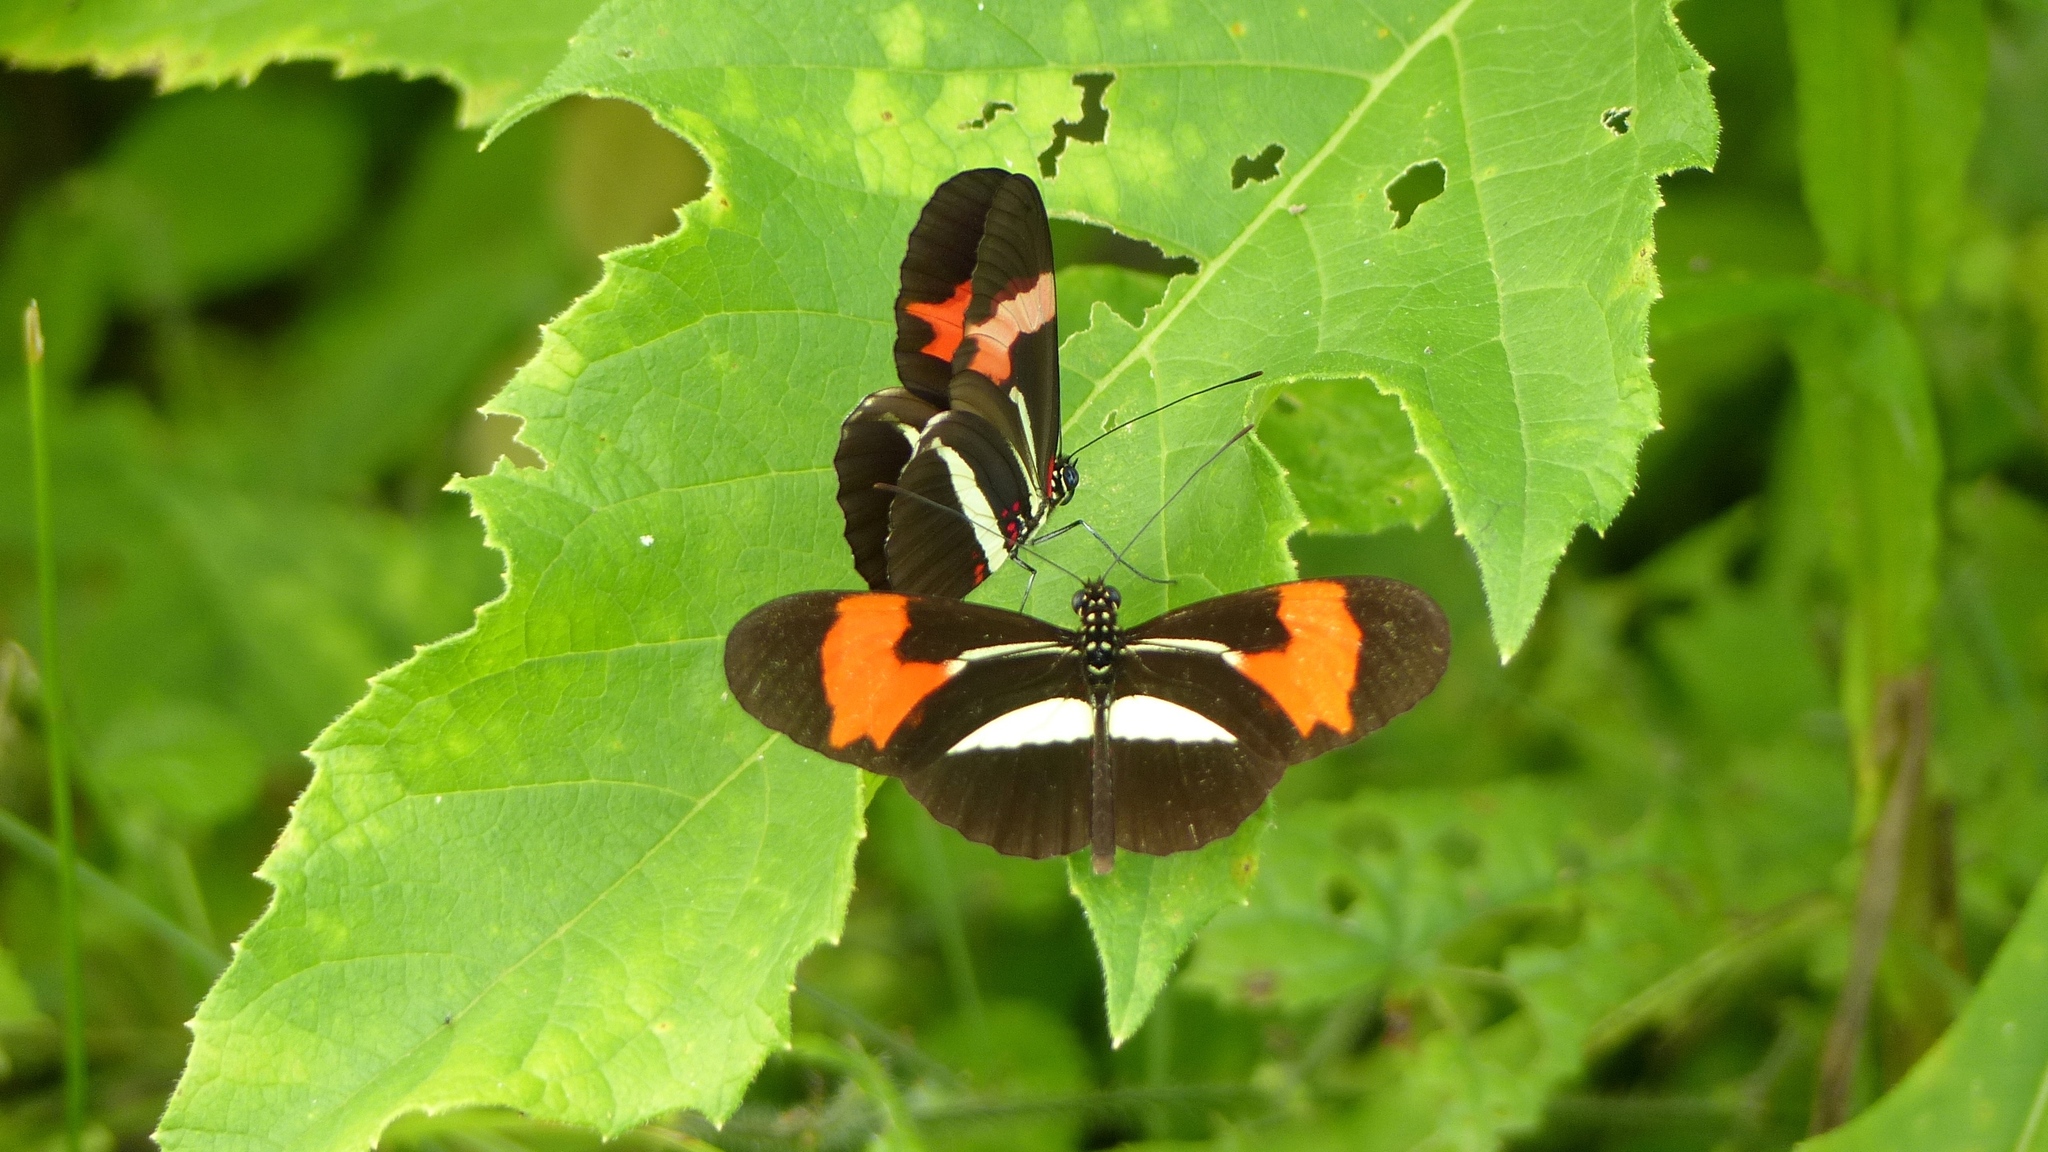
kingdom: Animalia
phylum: Arthropoda
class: Insecta
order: Lepidoptera
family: Nymphalidae
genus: Heliconius
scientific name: Heliconius erato
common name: Common patch longwing
